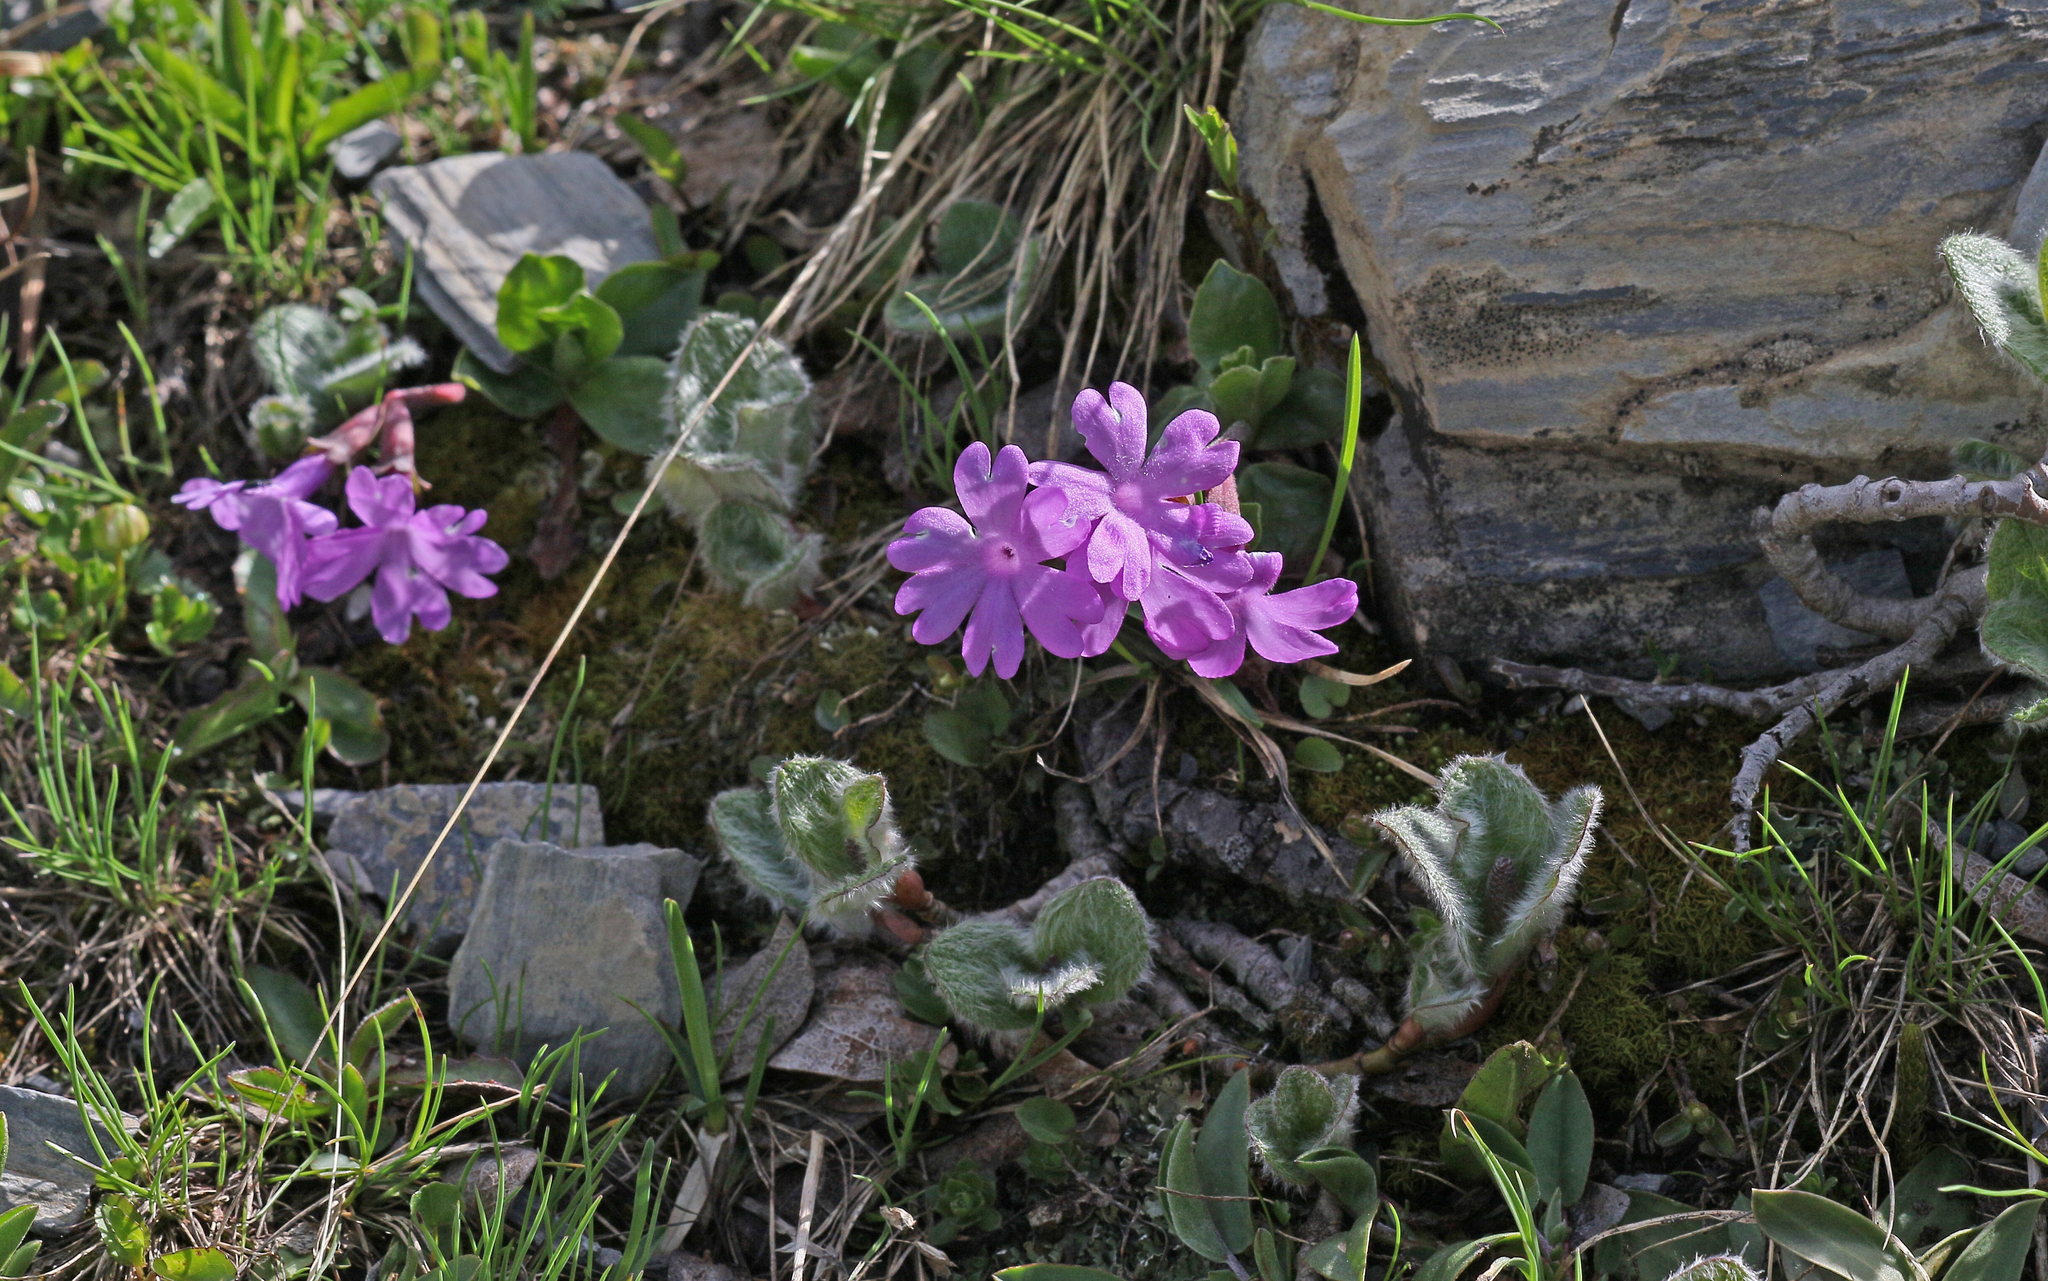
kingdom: Plantae
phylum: Tracheophyta
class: Magnoliopsida
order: Ericales
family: Primulaceae
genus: Primula
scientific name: Primula integrifolia
